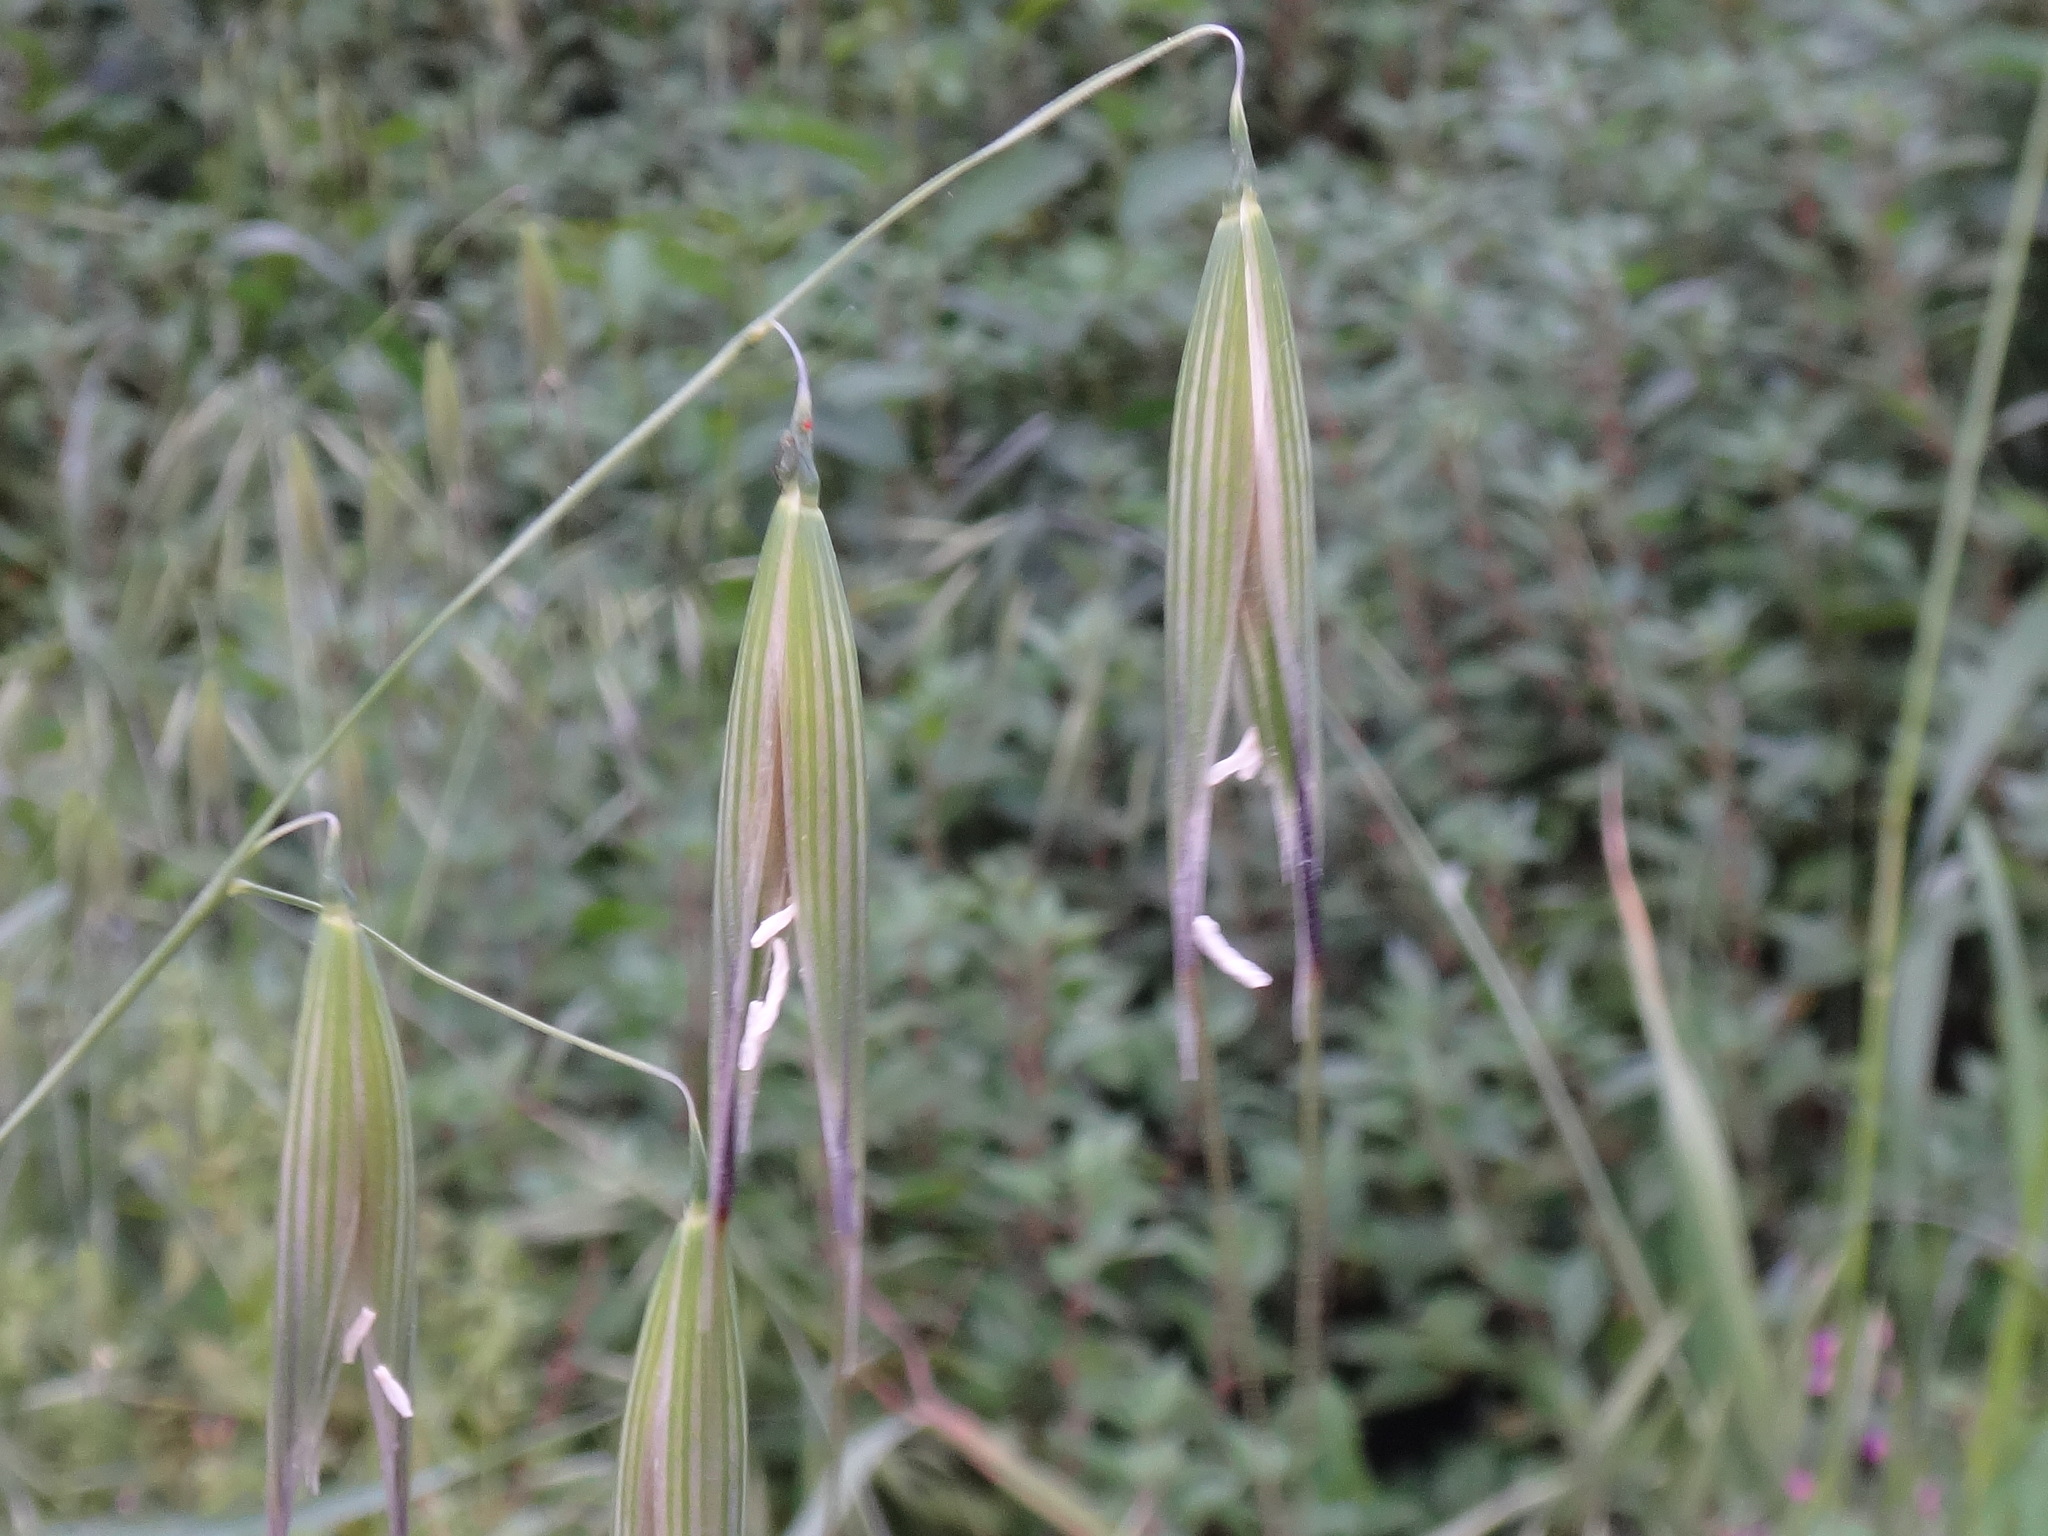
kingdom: Plantae
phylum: Tracheophyta
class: Liliopsida
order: Poales
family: Poaceae
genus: Avena
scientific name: Avena fatua
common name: Wild oat
